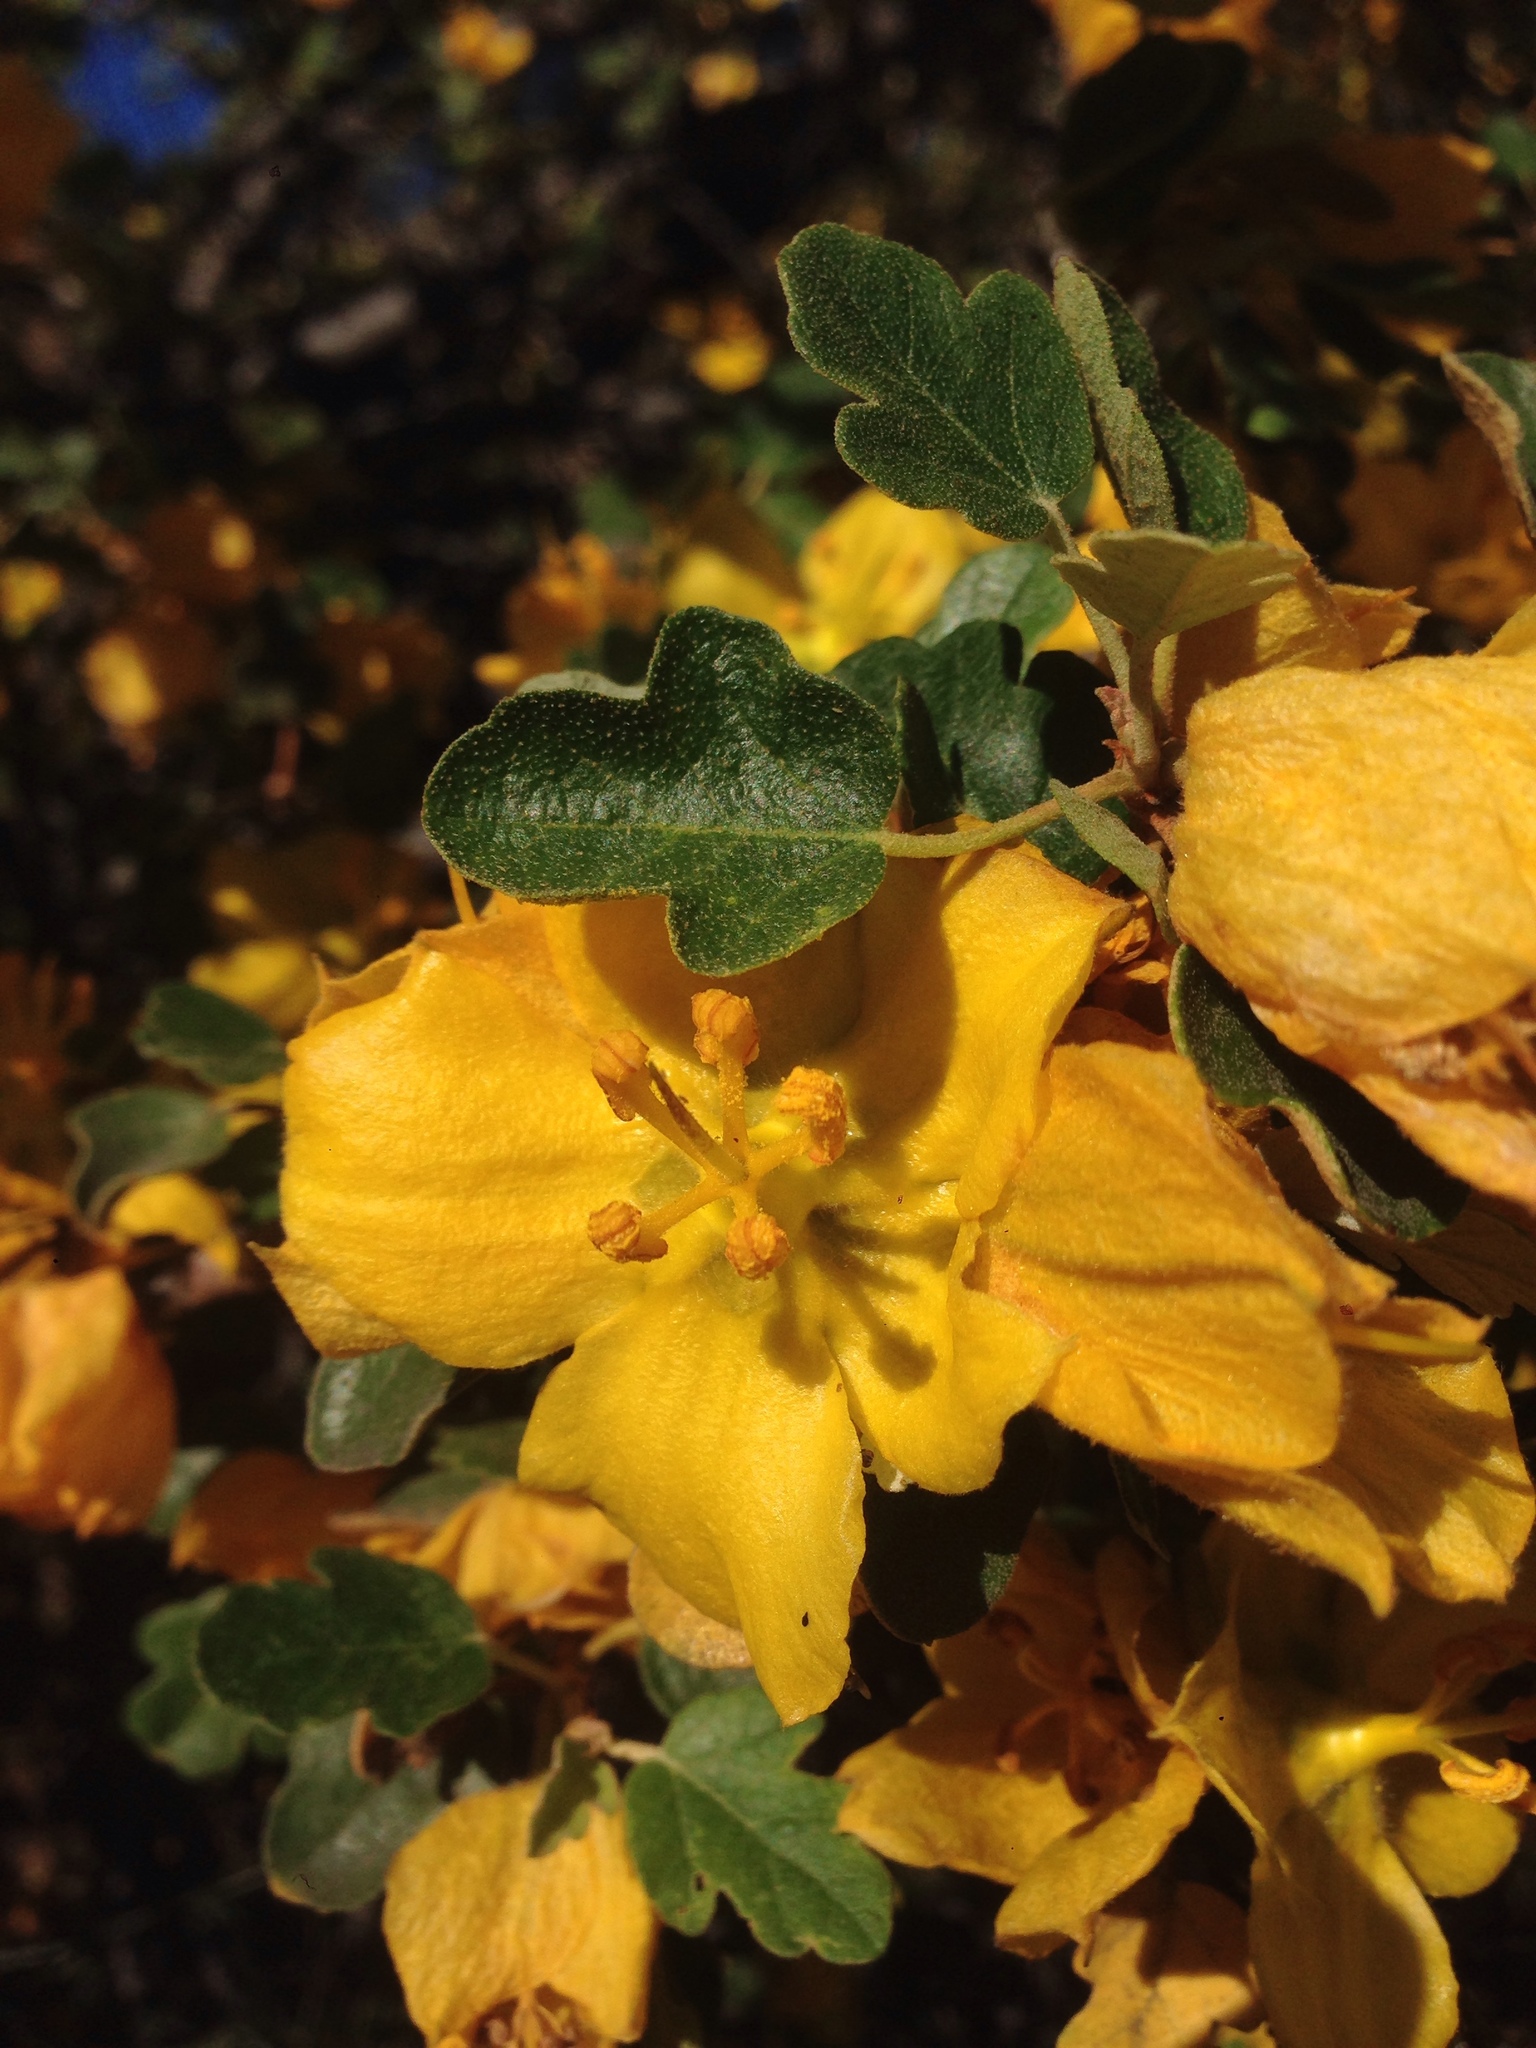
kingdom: Plantae
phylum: Tracheophyta
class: Magnoliopsida
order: Malvales
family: Malvaceae
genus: Fremontodendron
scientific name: Fremontodendron californicum
